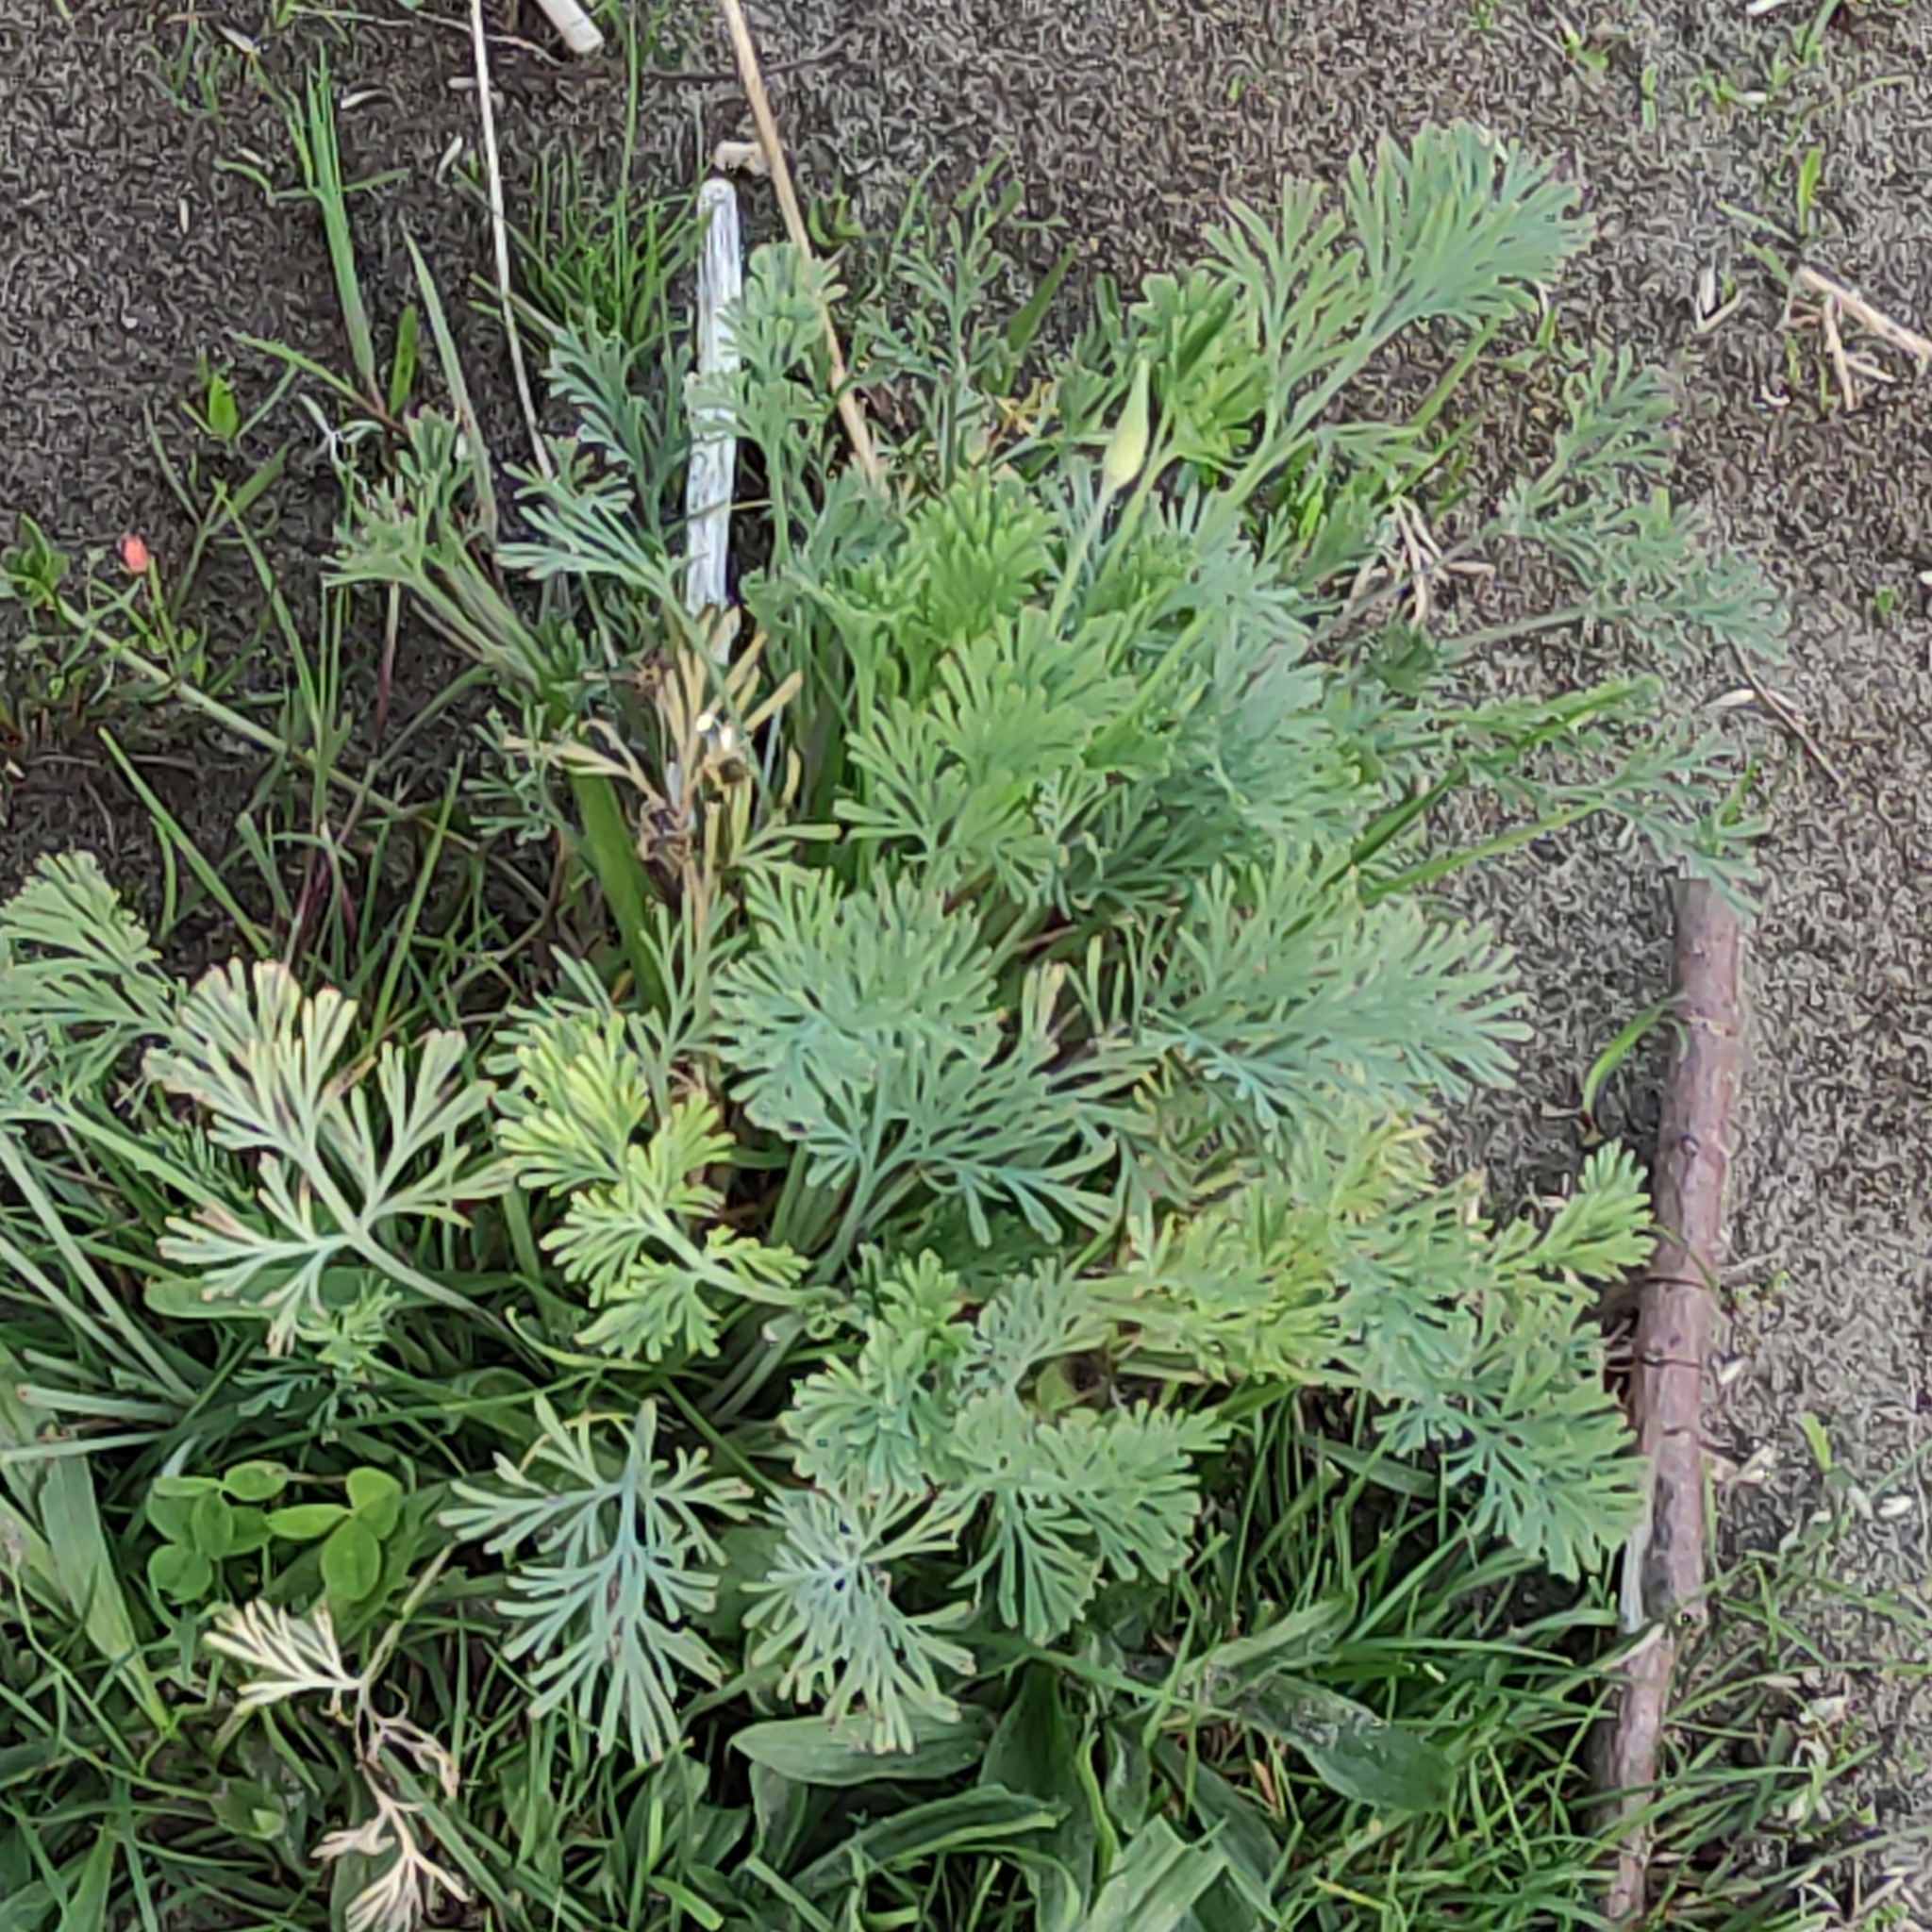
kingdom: Plantae
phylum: Tracheophyta
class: Magnoliopsida
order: Ranunculales
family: Papaveraceae
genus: Eschscholzia
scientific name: Eschscholzia californica
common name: California poppy
